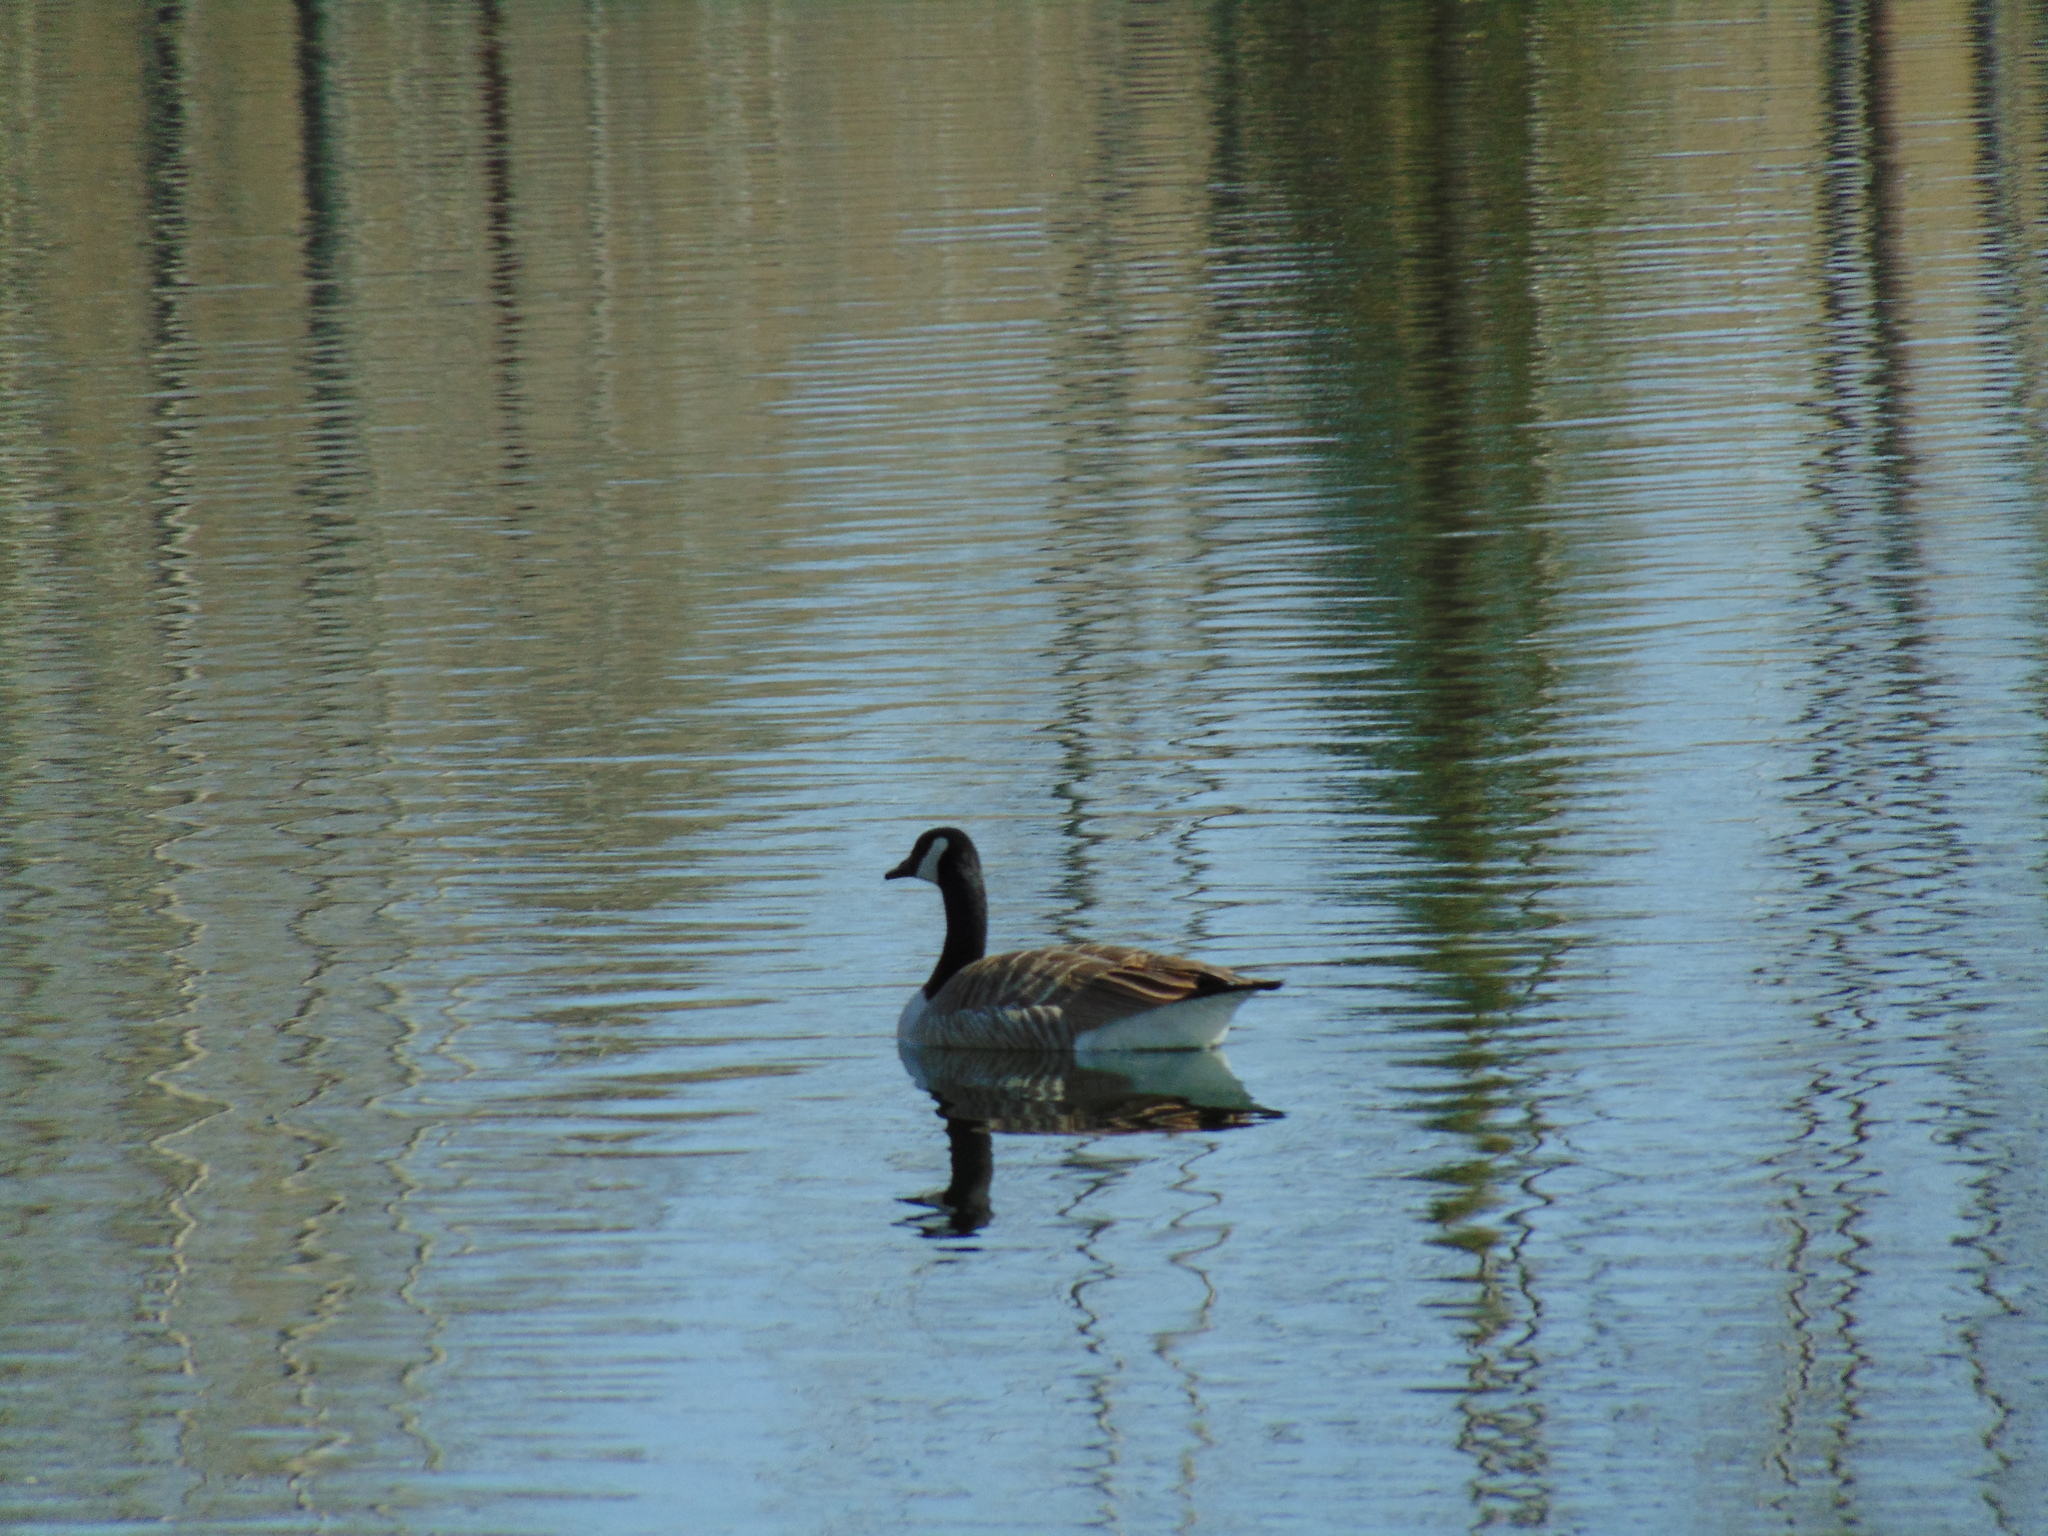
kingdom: Animalia
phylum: Chordata
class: Aves
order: Anseriformes
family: Anatidae
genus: Branta
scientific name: Branta canadensis
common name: Canada goose
